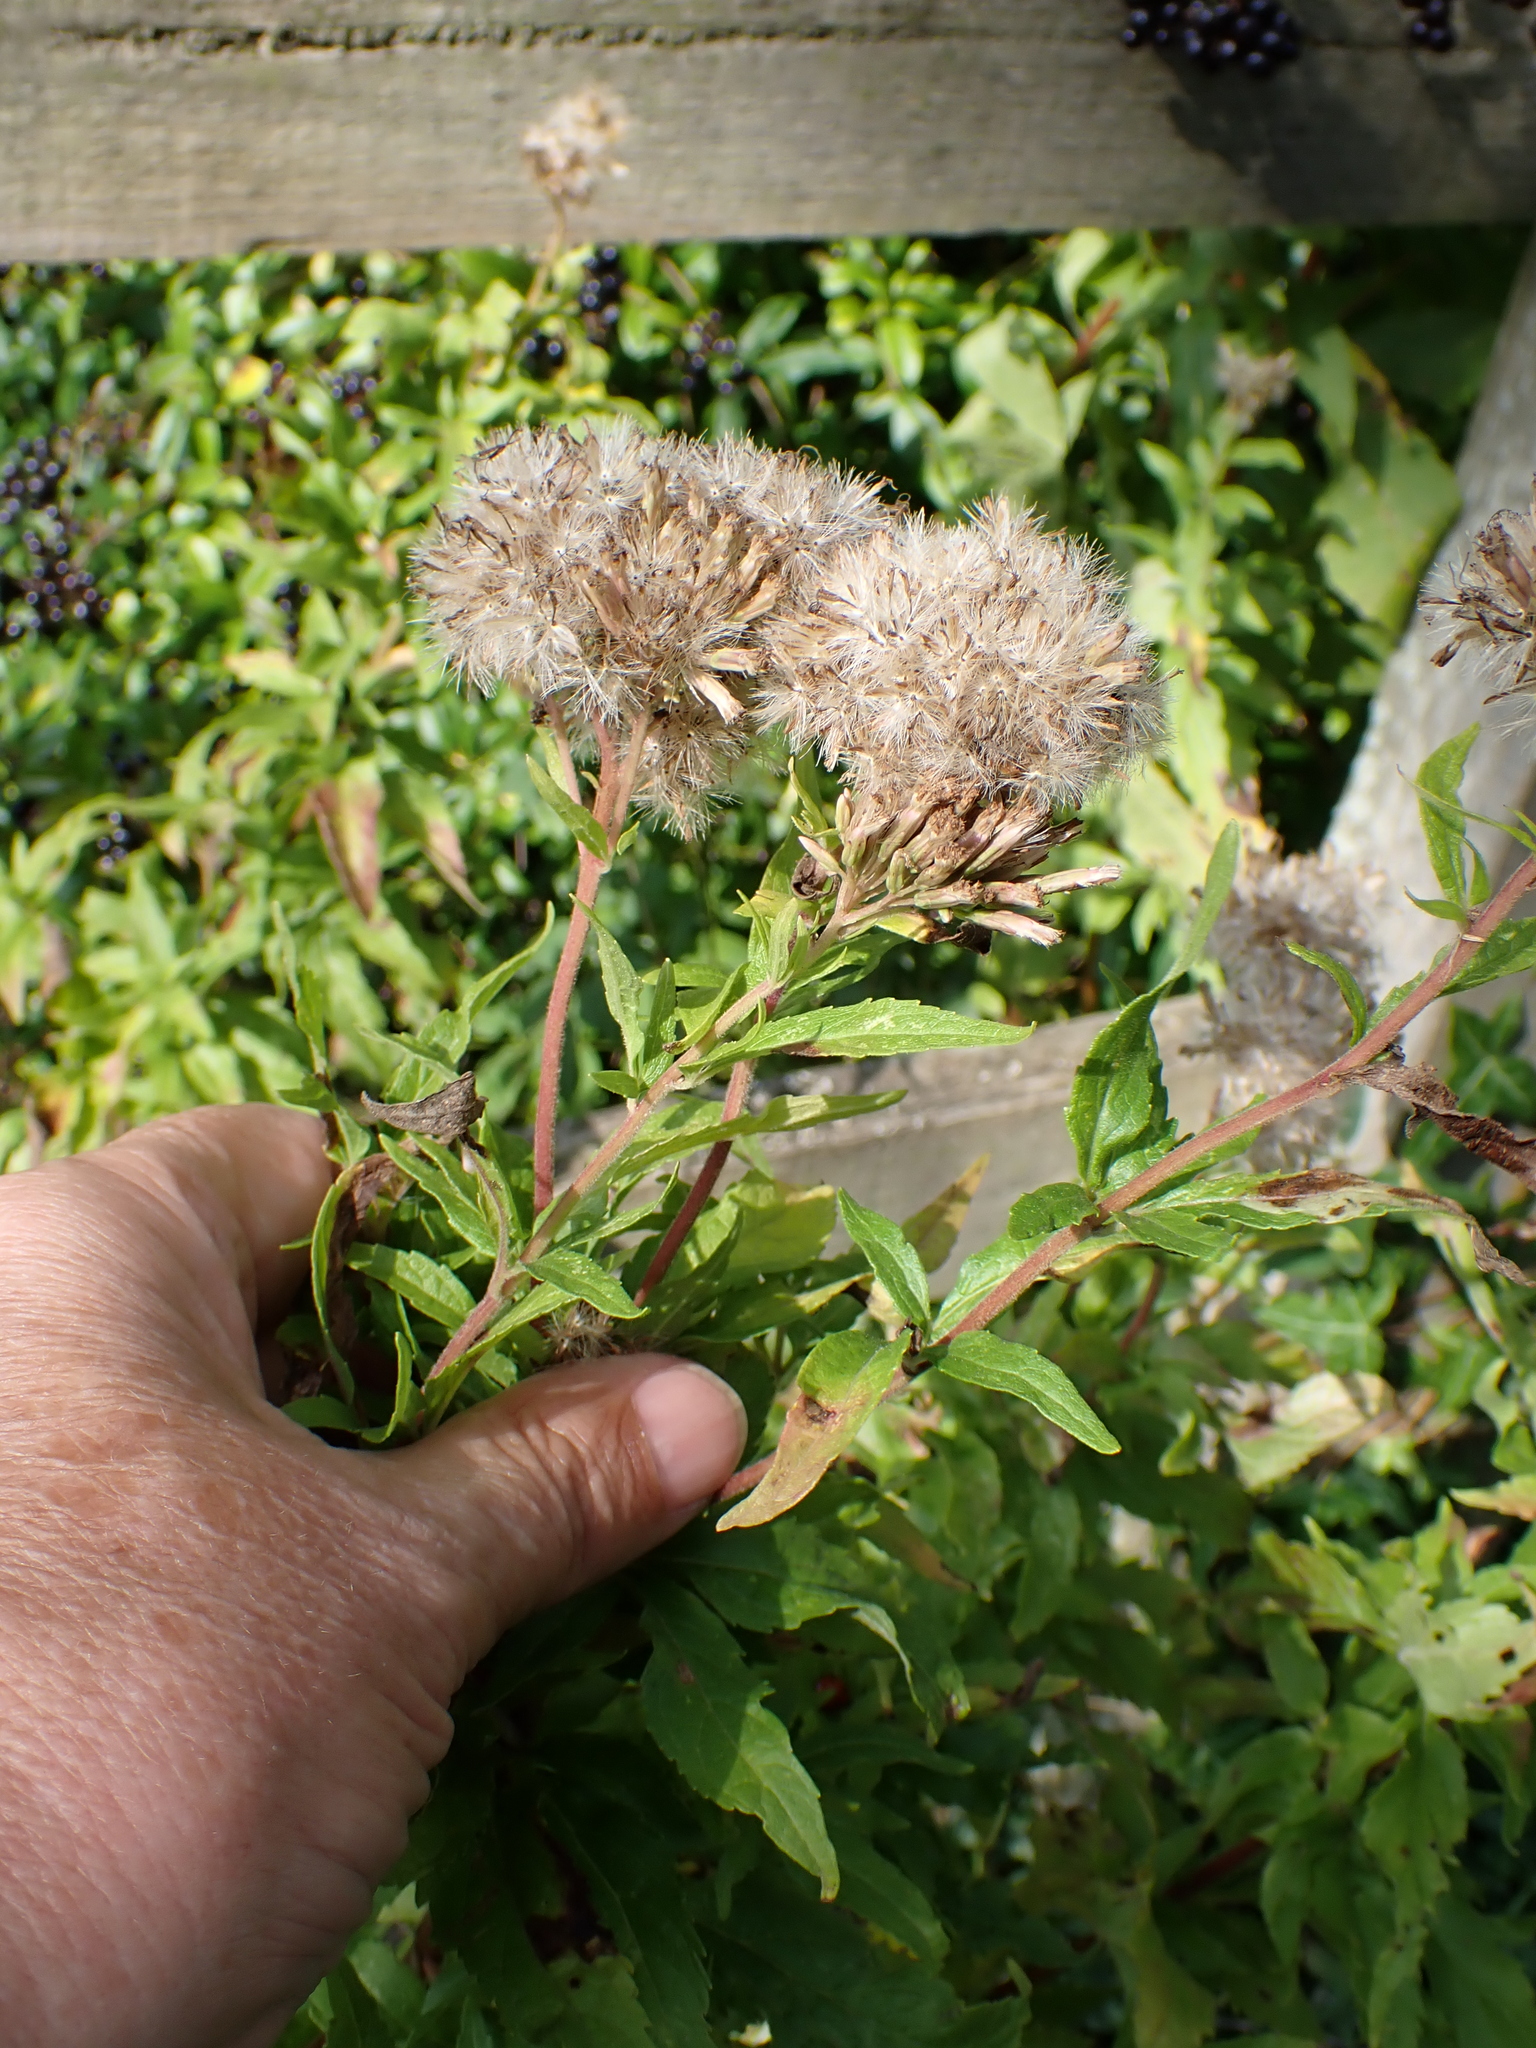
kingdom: Plantae
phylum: Tracheophyta
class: Magnoliopsida
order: Asterales
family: Asteraceae
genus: Eupatorium
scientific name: Eupatorium cannabinum
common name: Hemp-agrimony
